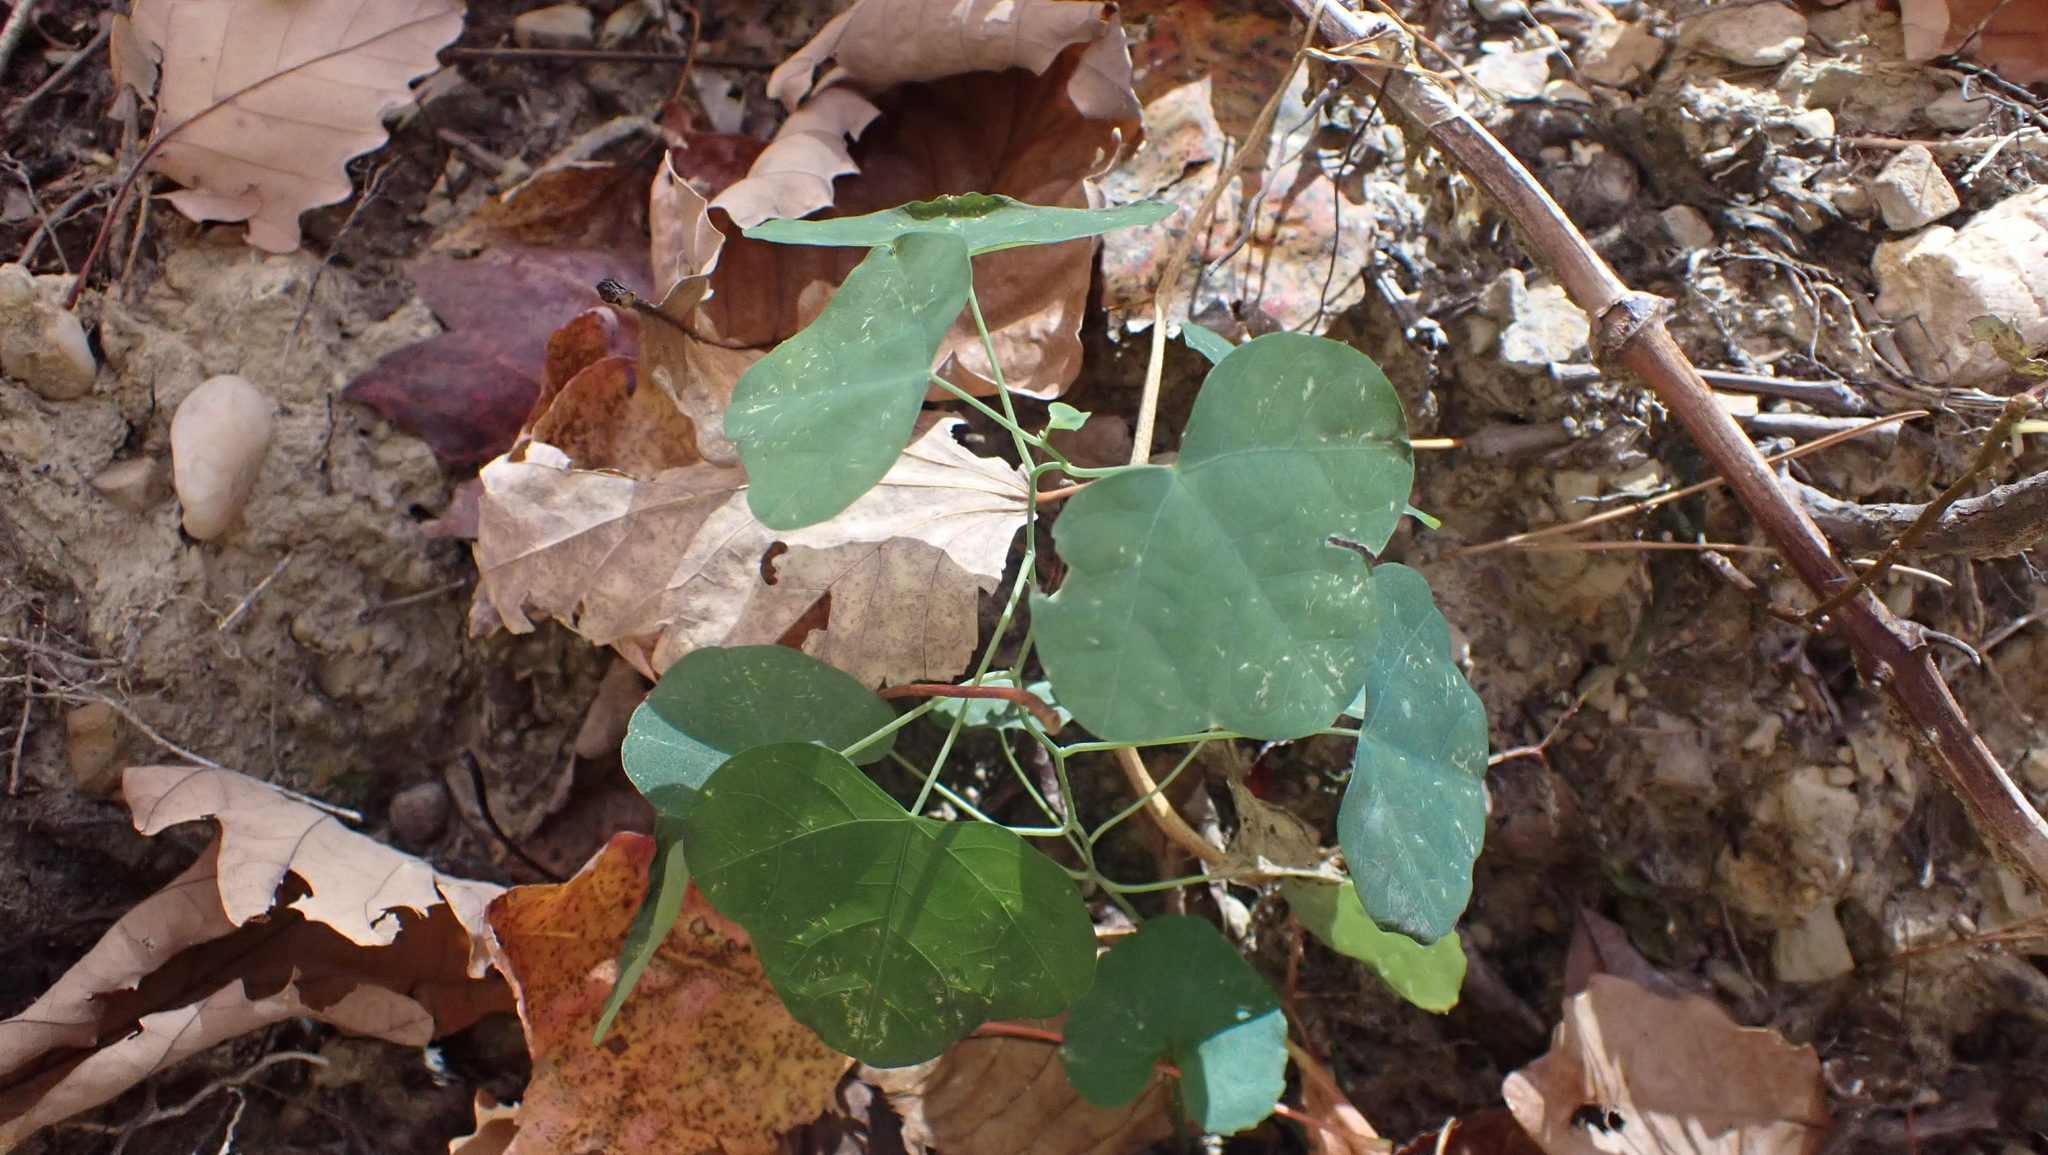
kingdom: Plantae
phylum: Tracheophyta
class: Magnoliopsida
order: Malpighiales
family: Passifloraceae
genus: Passiflora
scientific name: Passiflora lutea
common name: Yellow passionflower
